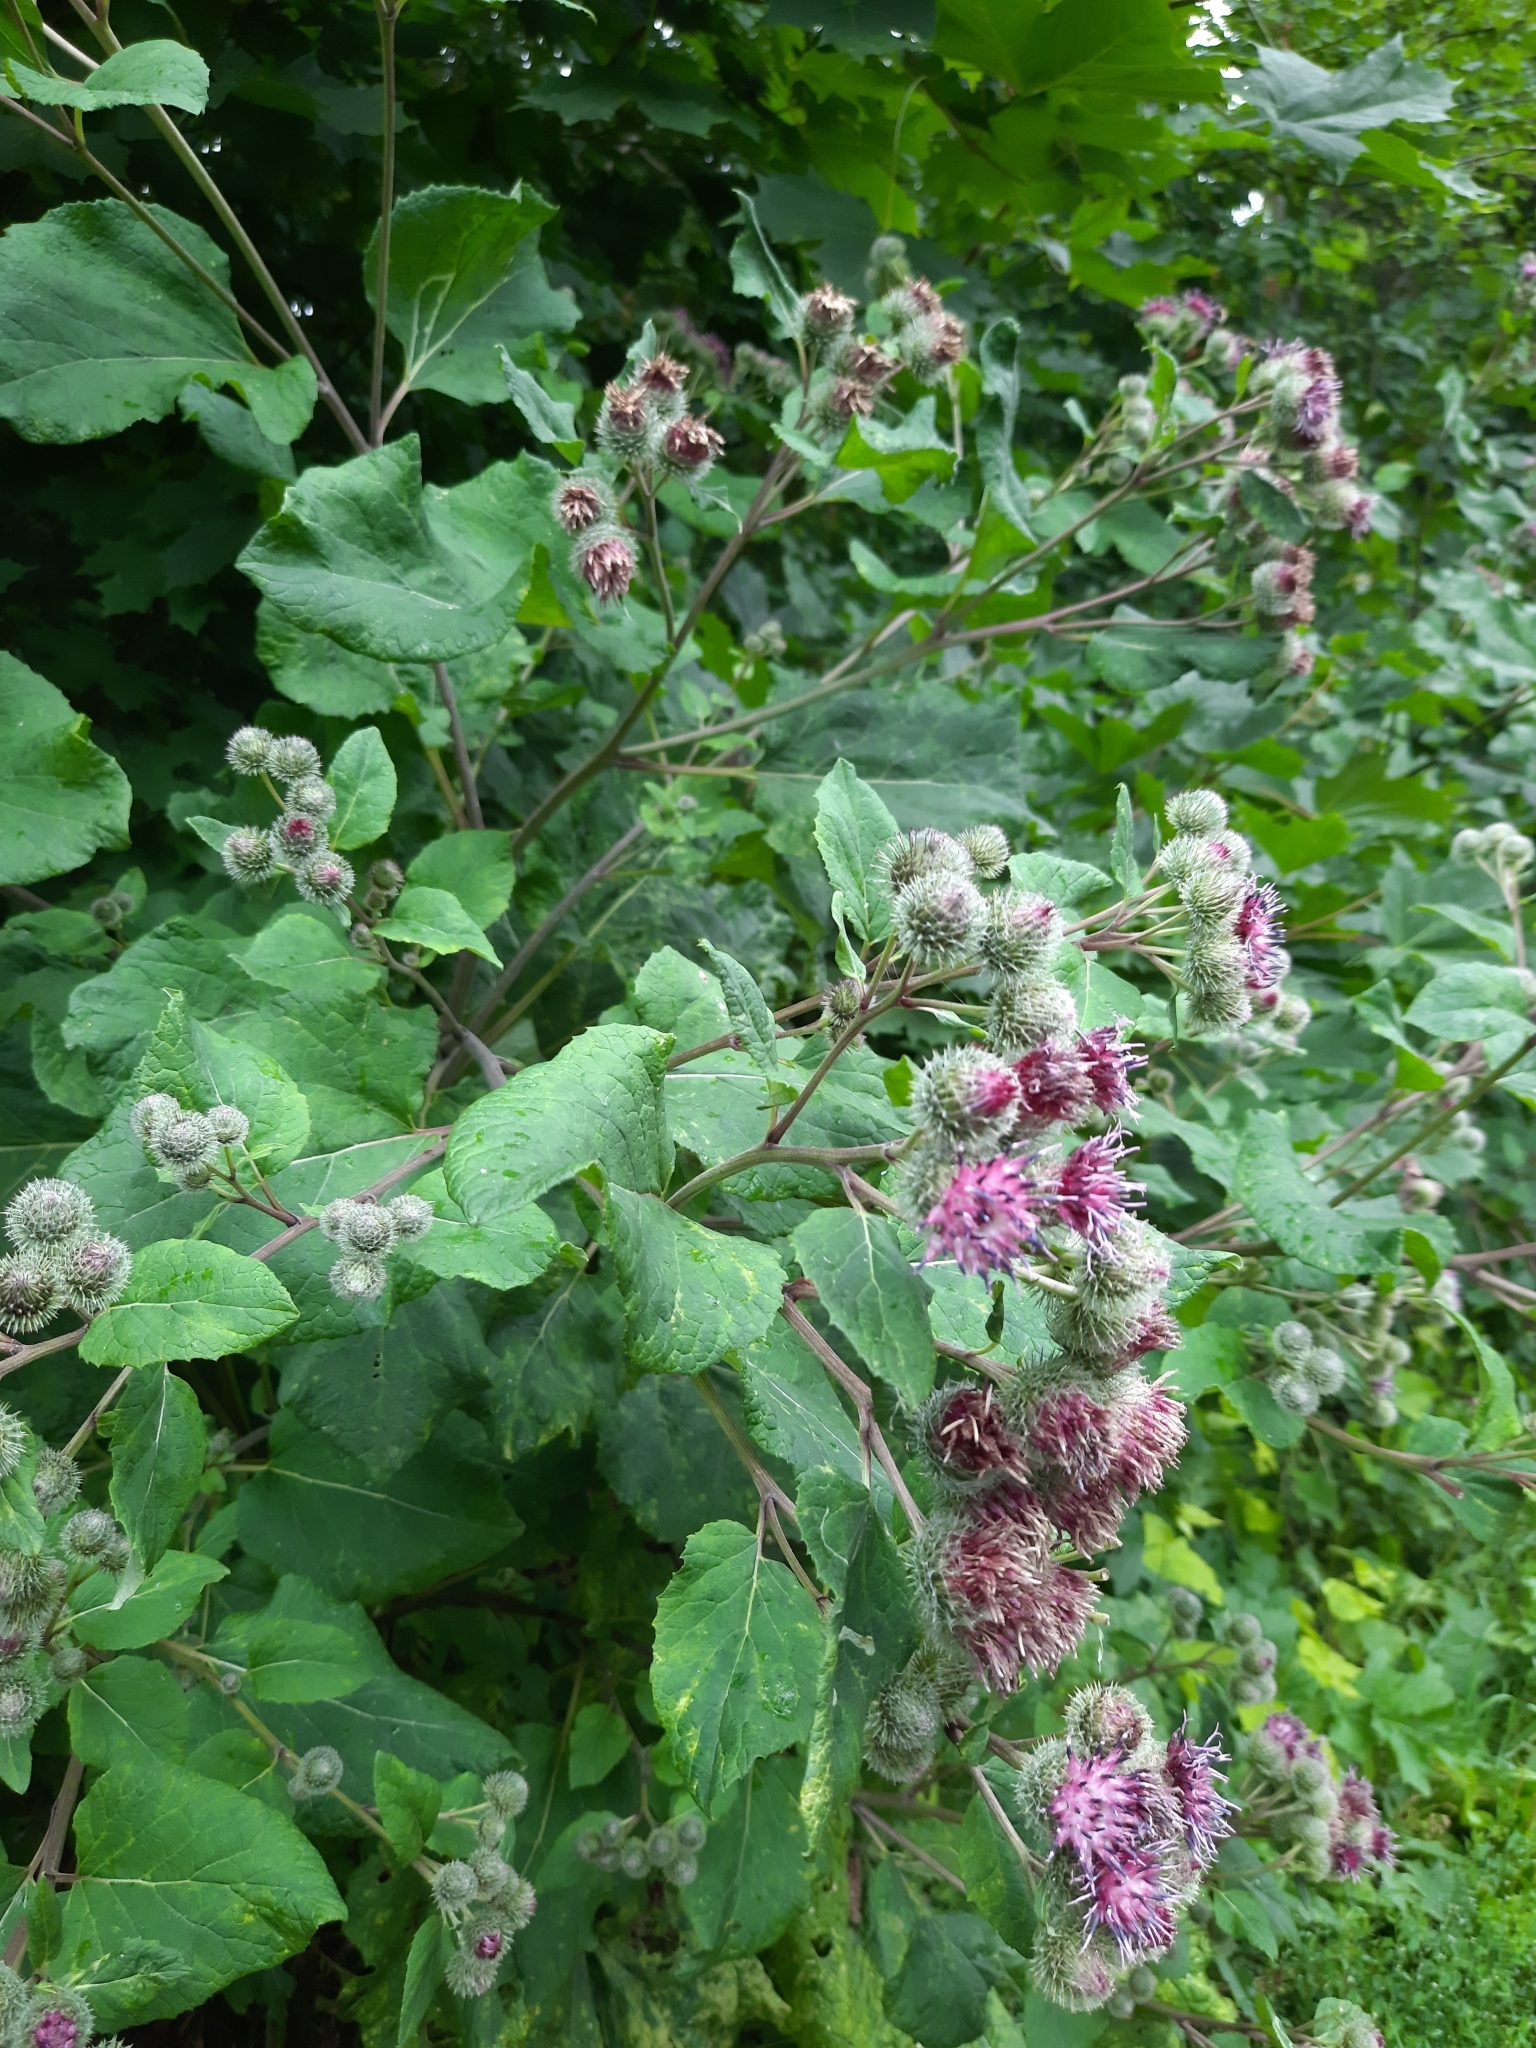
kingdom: Plantae
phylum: Tracheophyta
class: Magnoliopsida
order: Asterales
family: Asteraceae
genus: Arctium
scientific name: Arctium tomentosum
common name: Woolly burdock
